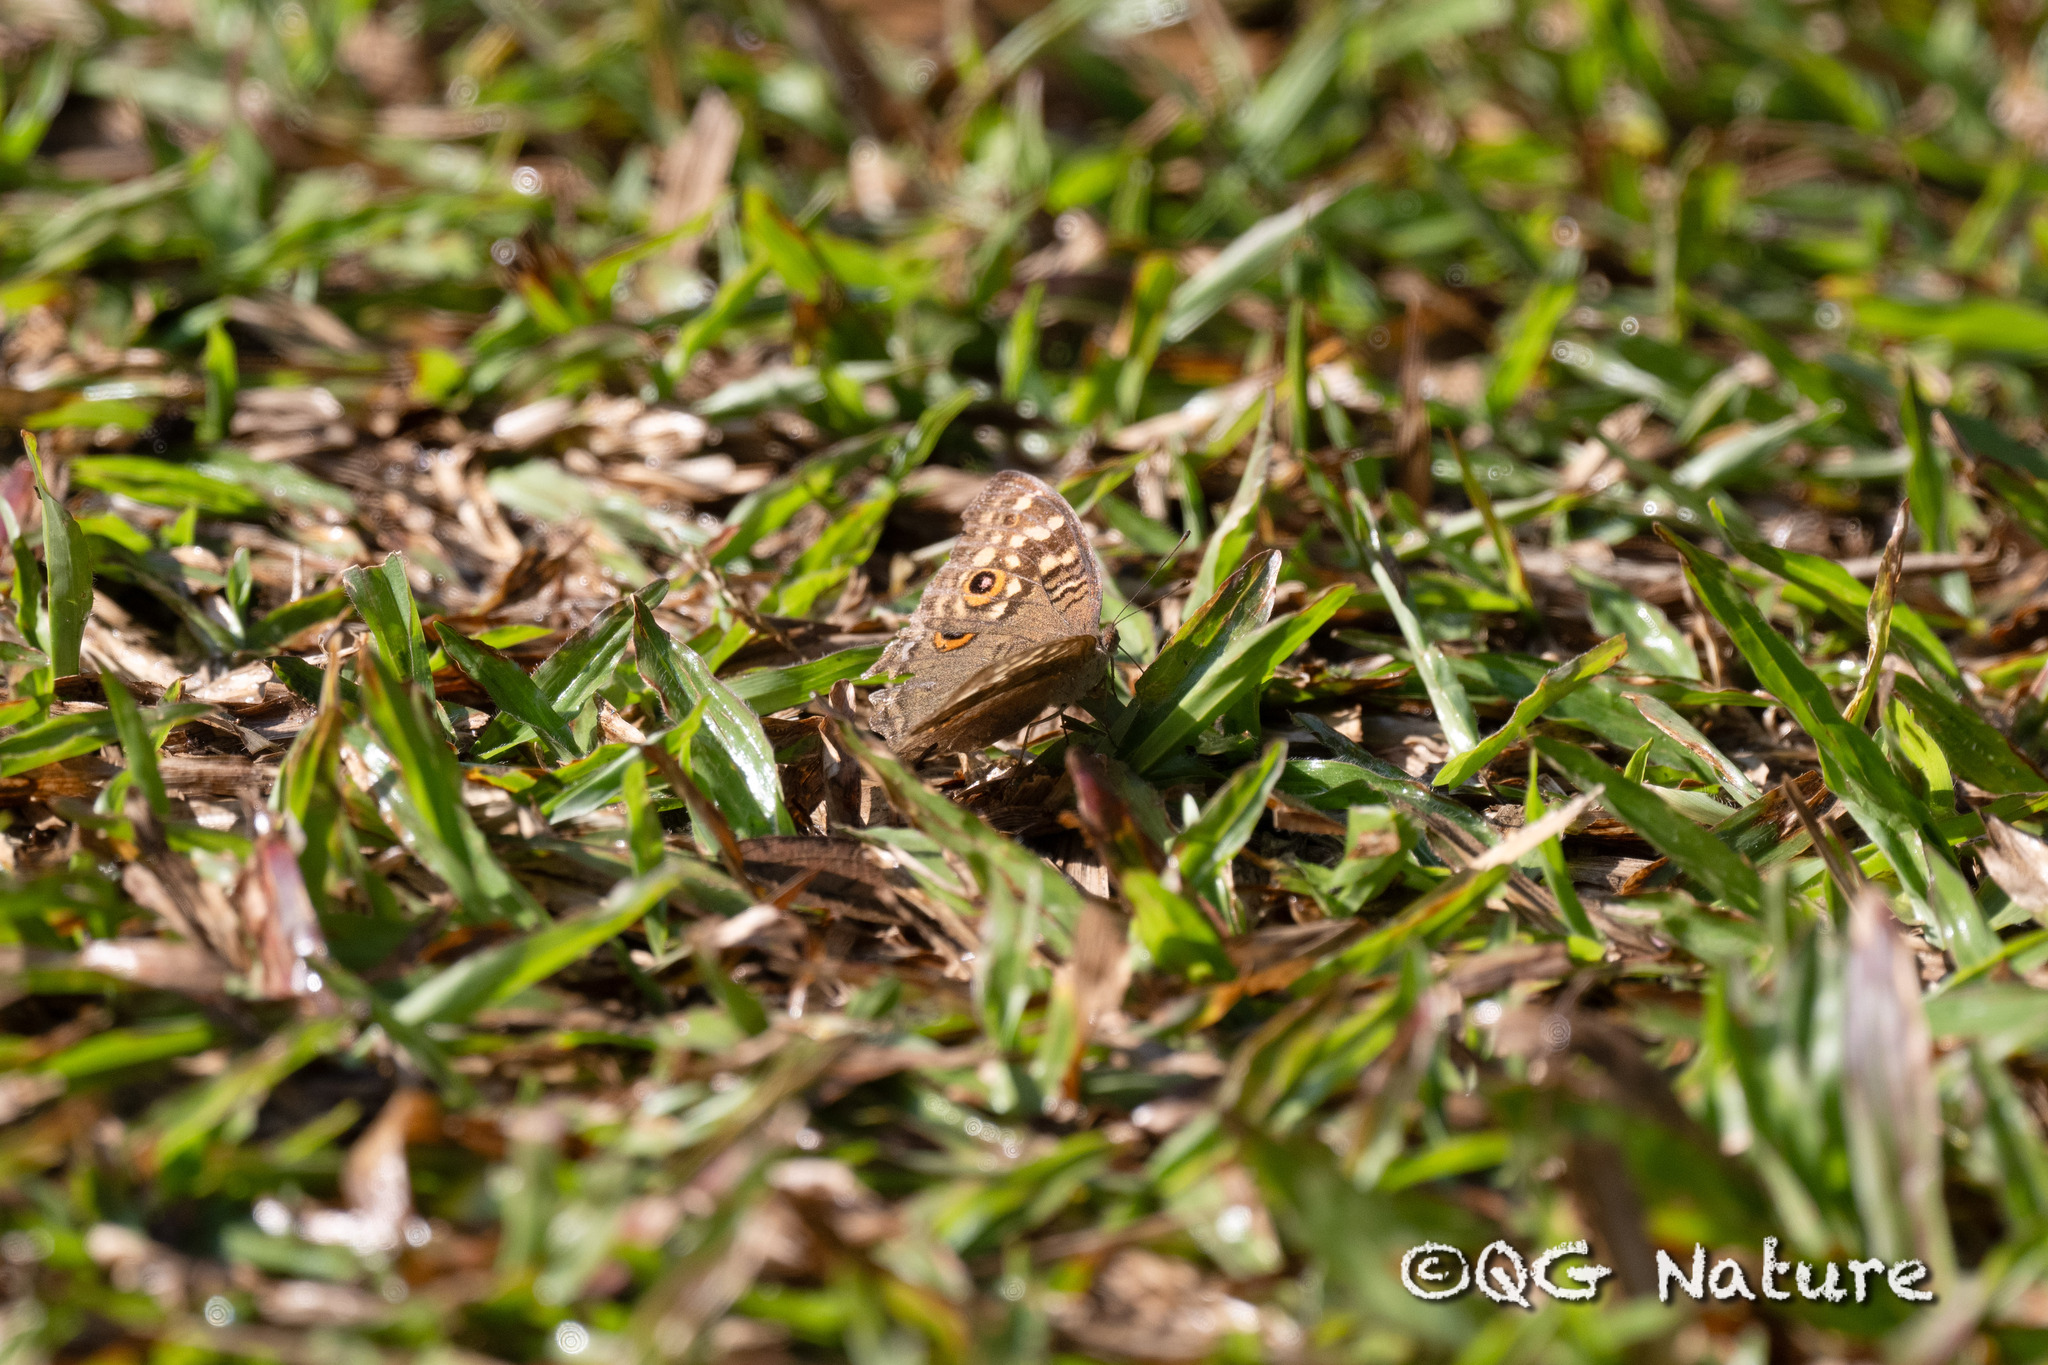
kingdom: Animalia
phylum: Arthropoda
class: Insecta
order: Lepidoptera
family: Nymphalidae
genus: Junonia
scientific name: Junonia lemonias
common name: Lemon pansy
